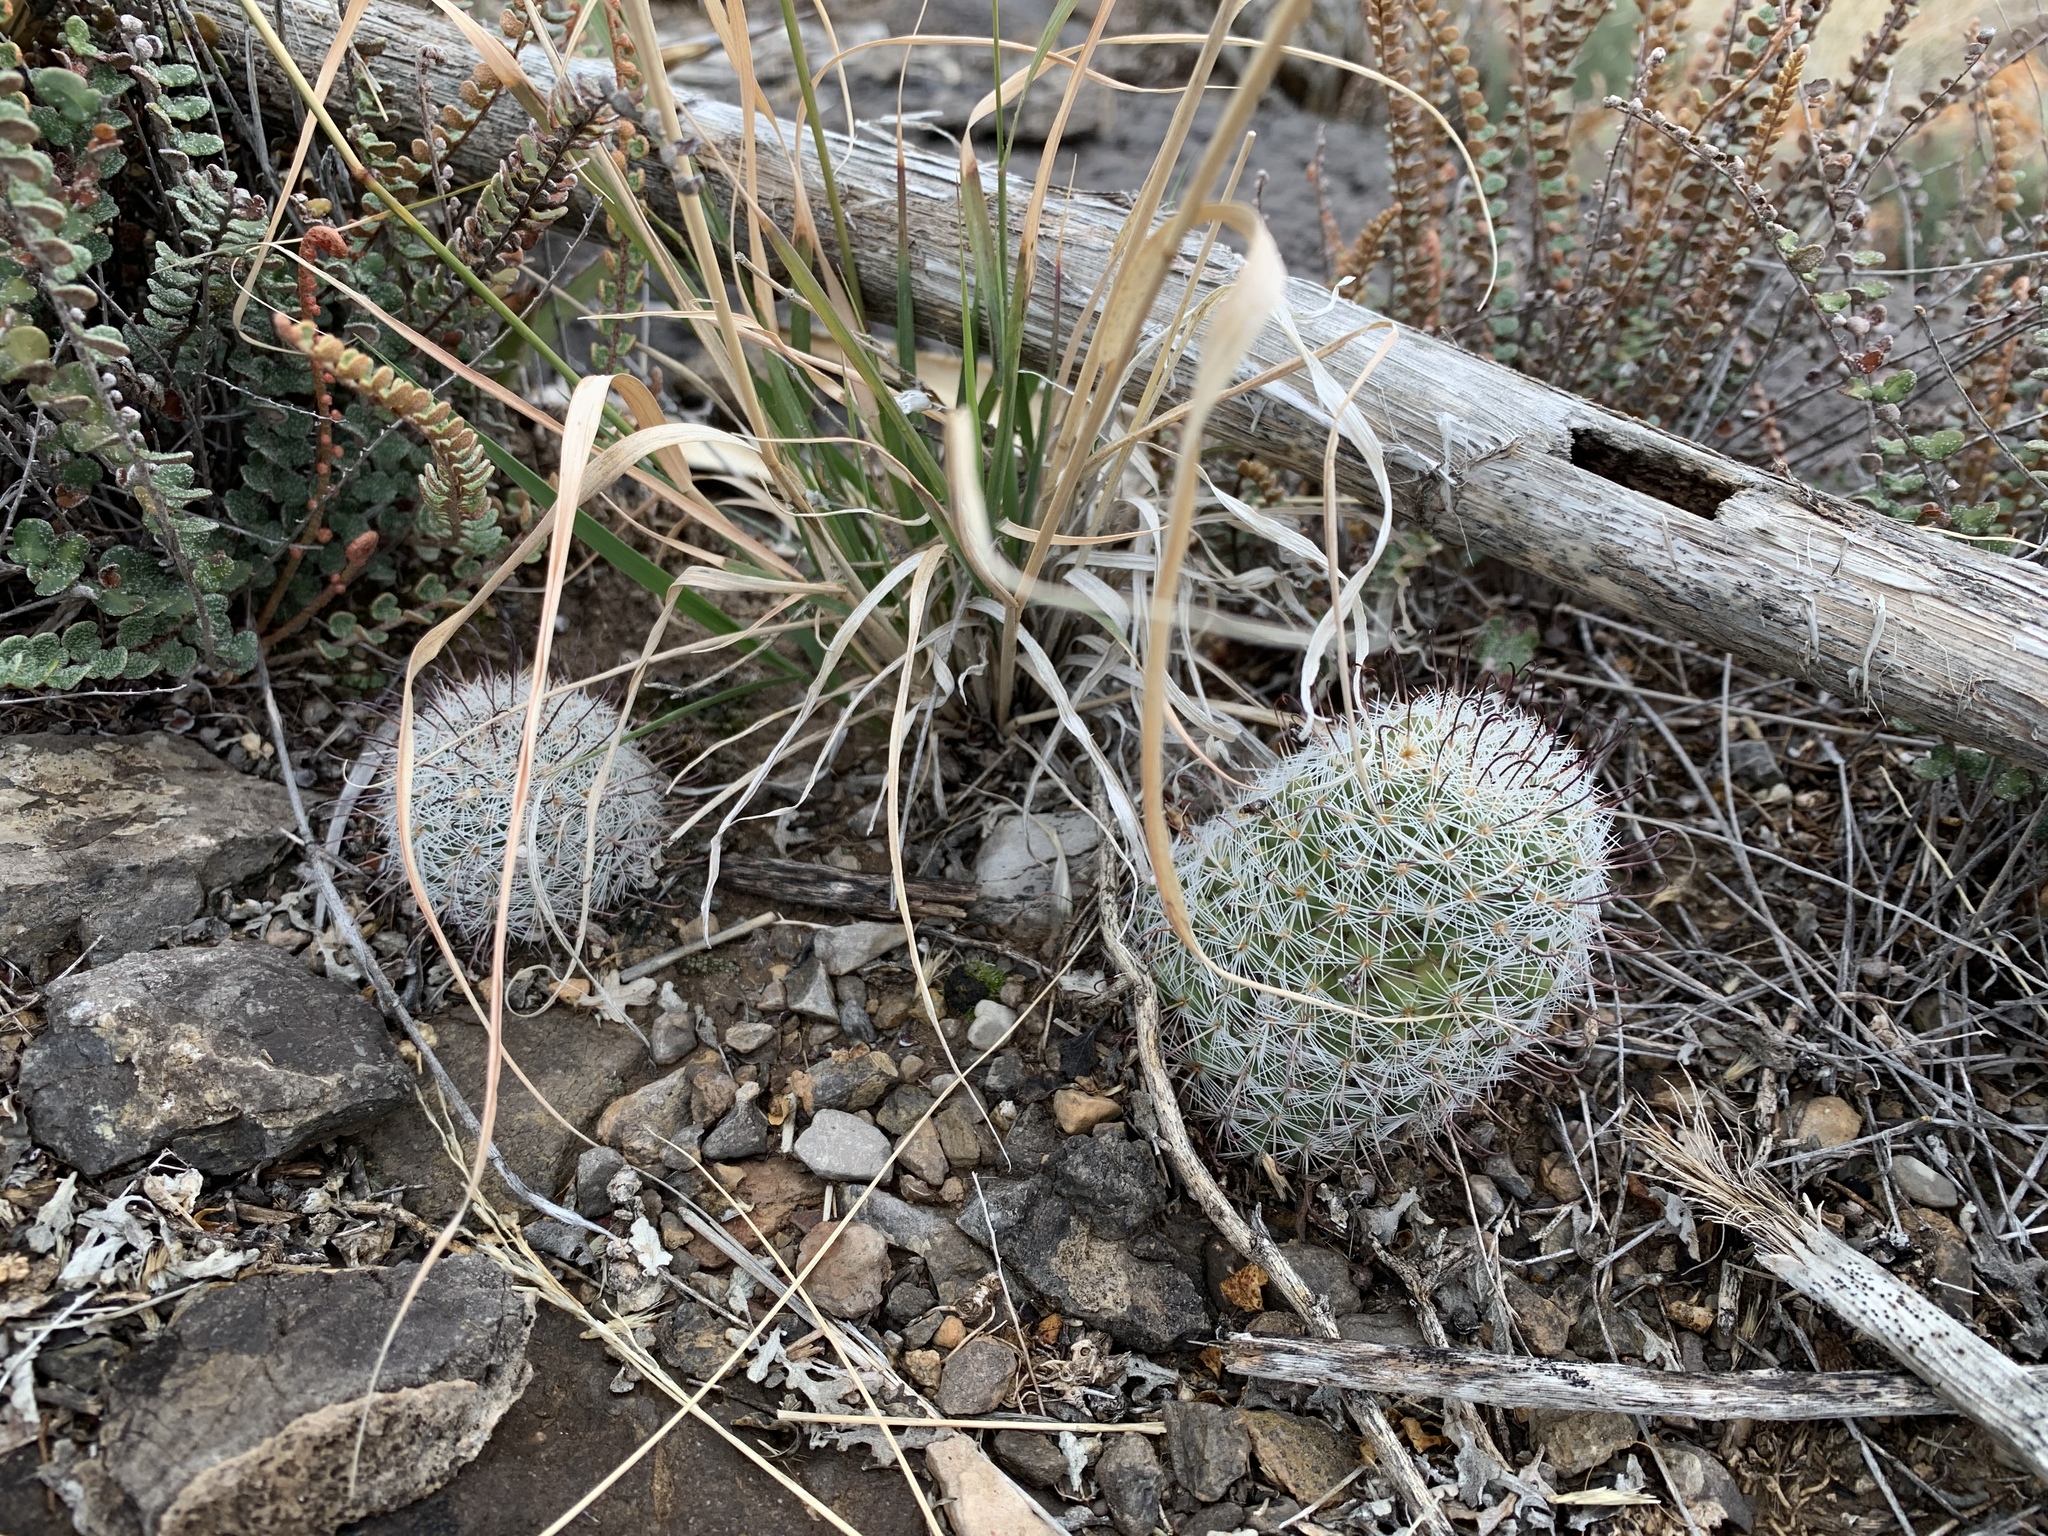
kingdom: Plantae
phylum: Tracheophyta
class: Magnoliopsida
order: Caryophyllales
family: Cactaceae
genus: Cochemiea
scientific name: Cochemiea grahamii
